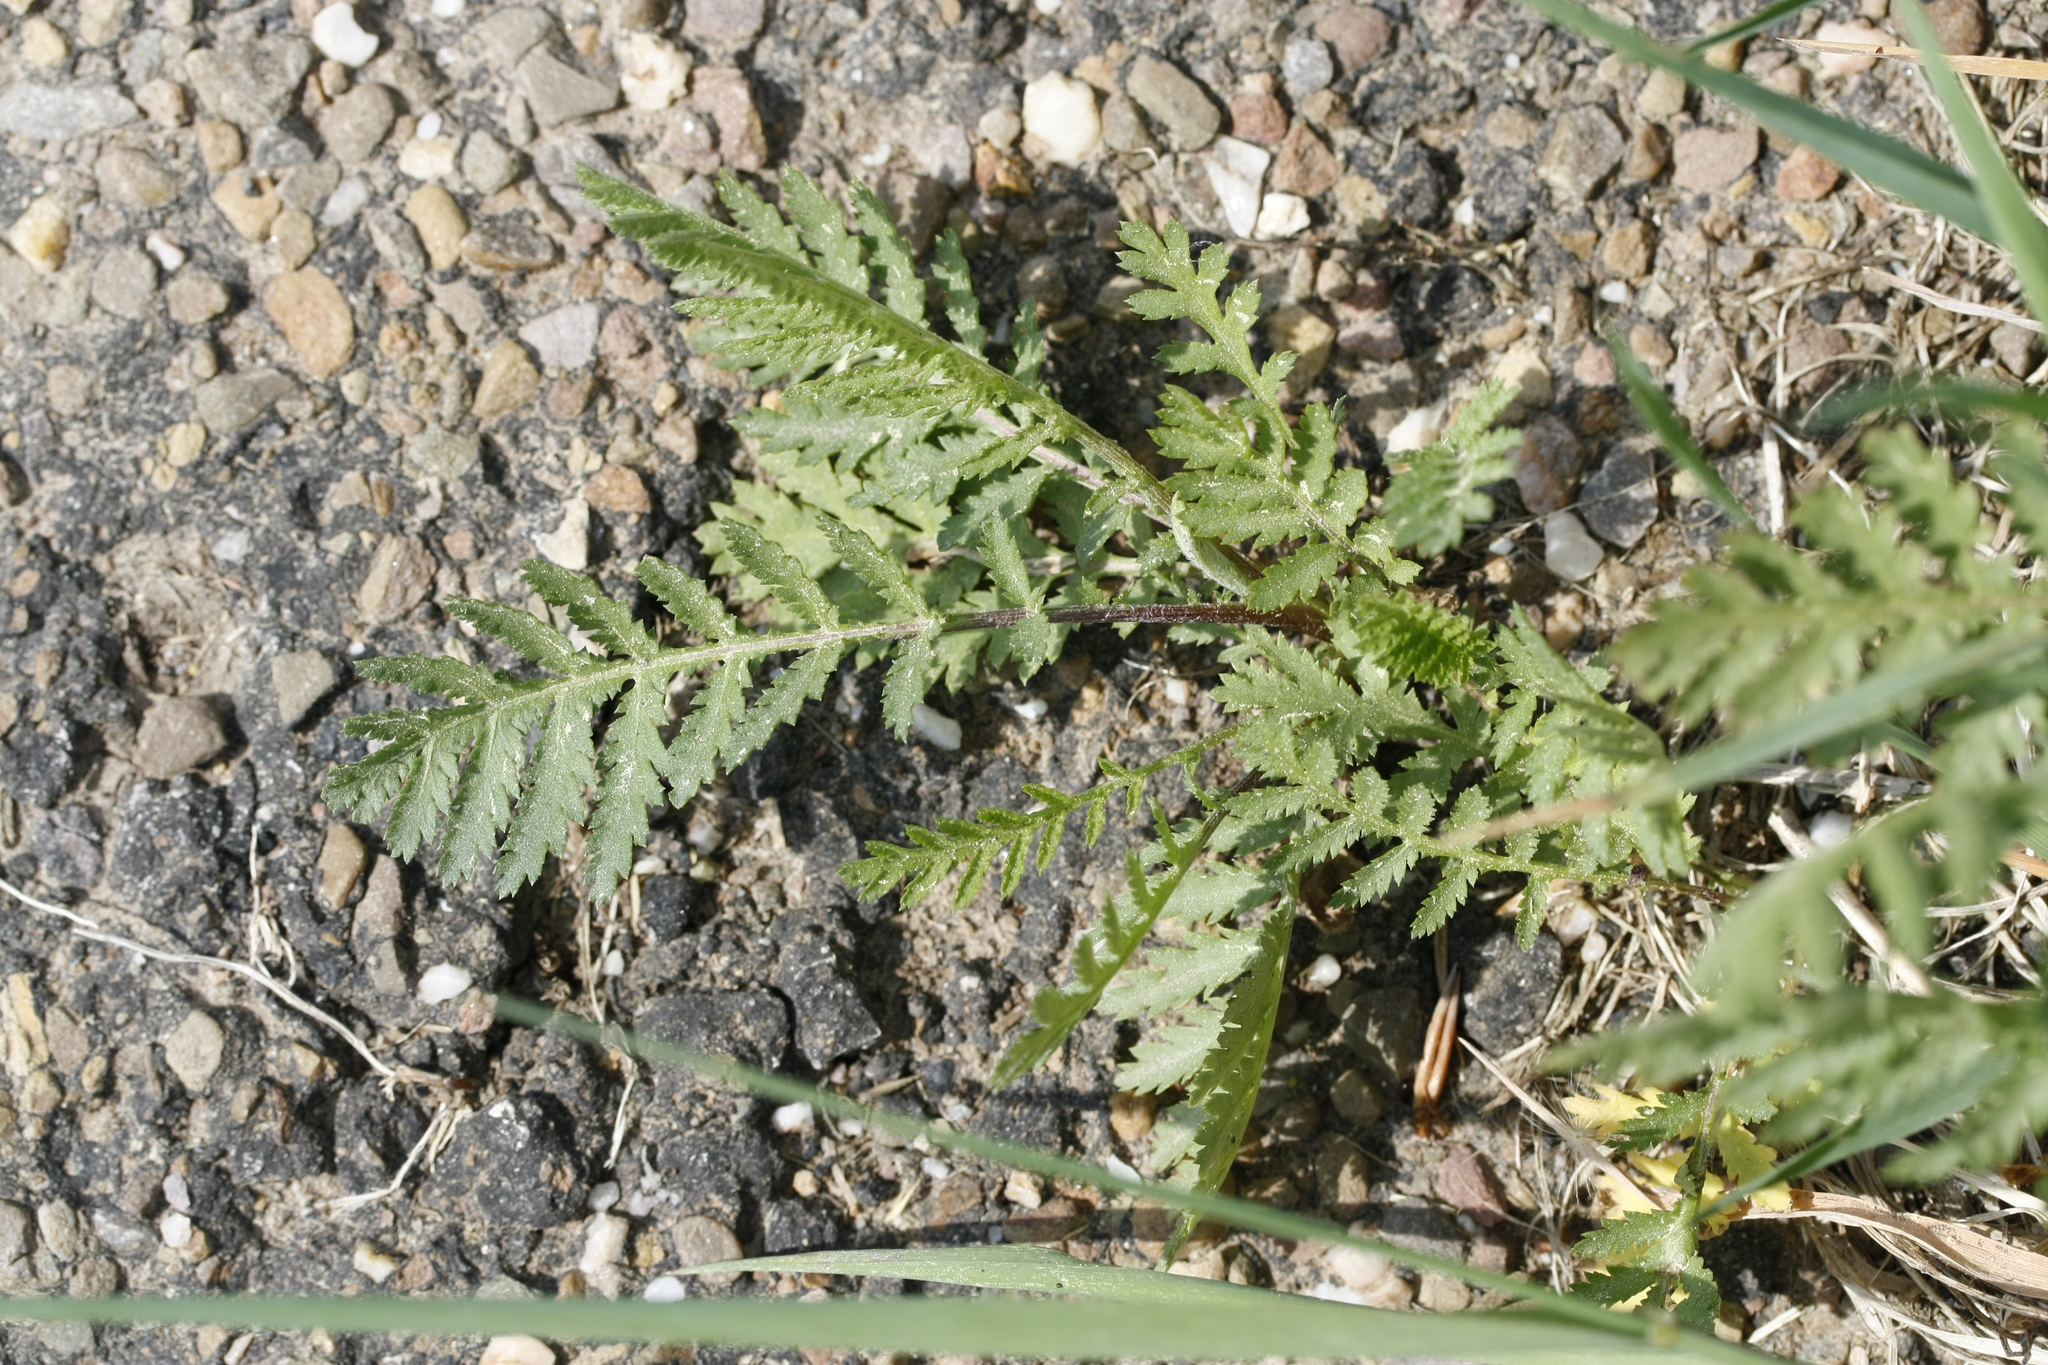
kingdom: Plantae
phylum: Tracheophyta
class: Magnoliopsida
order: Asterales
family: Asteraceae
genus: Tanacetum
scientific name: Tanacetum vulgare
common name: Common tansy
